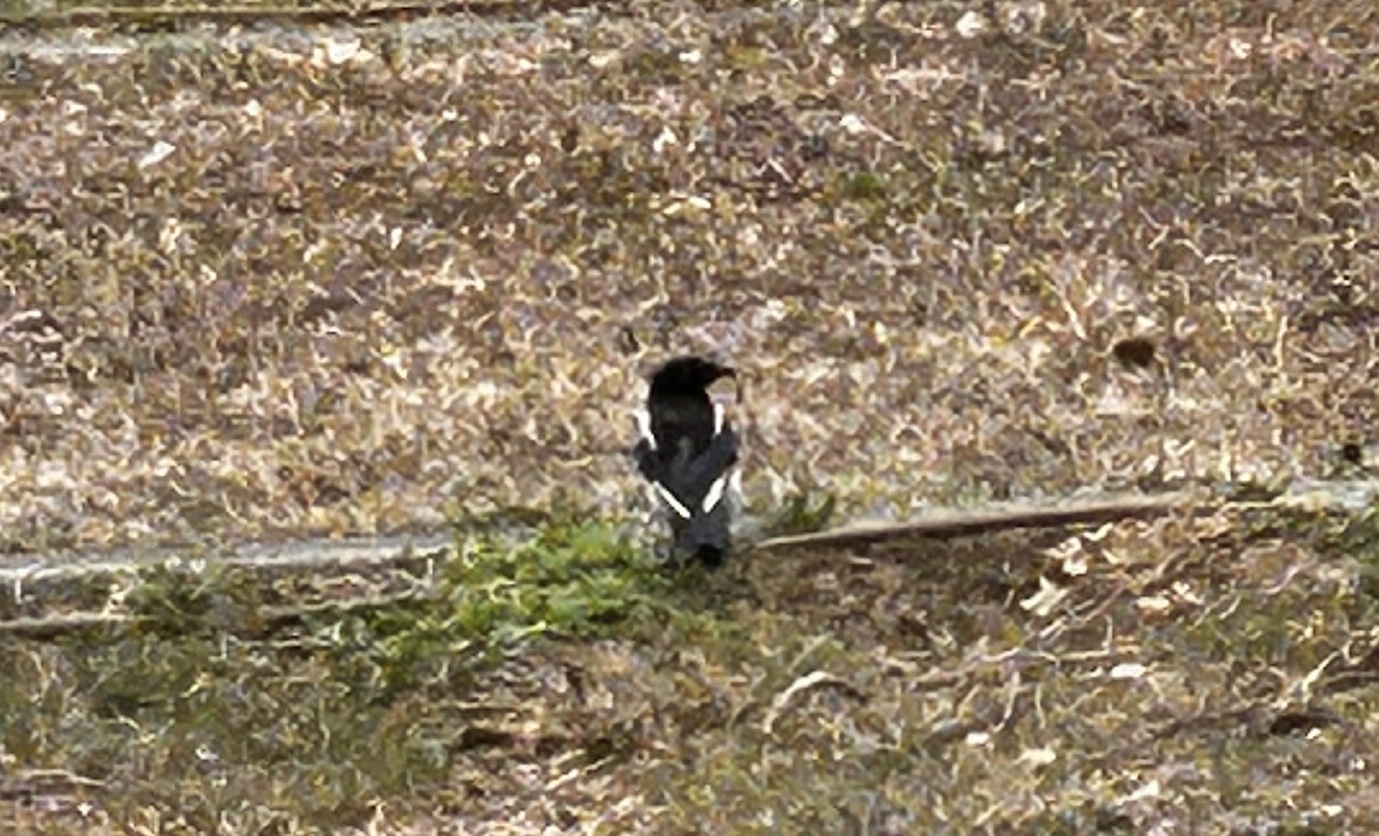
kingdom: Animalia
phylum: Chordata
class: Aves
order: Passeriformes
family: Corvidae
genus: Pica
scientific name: Pica pica
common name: Eurasian magpie
